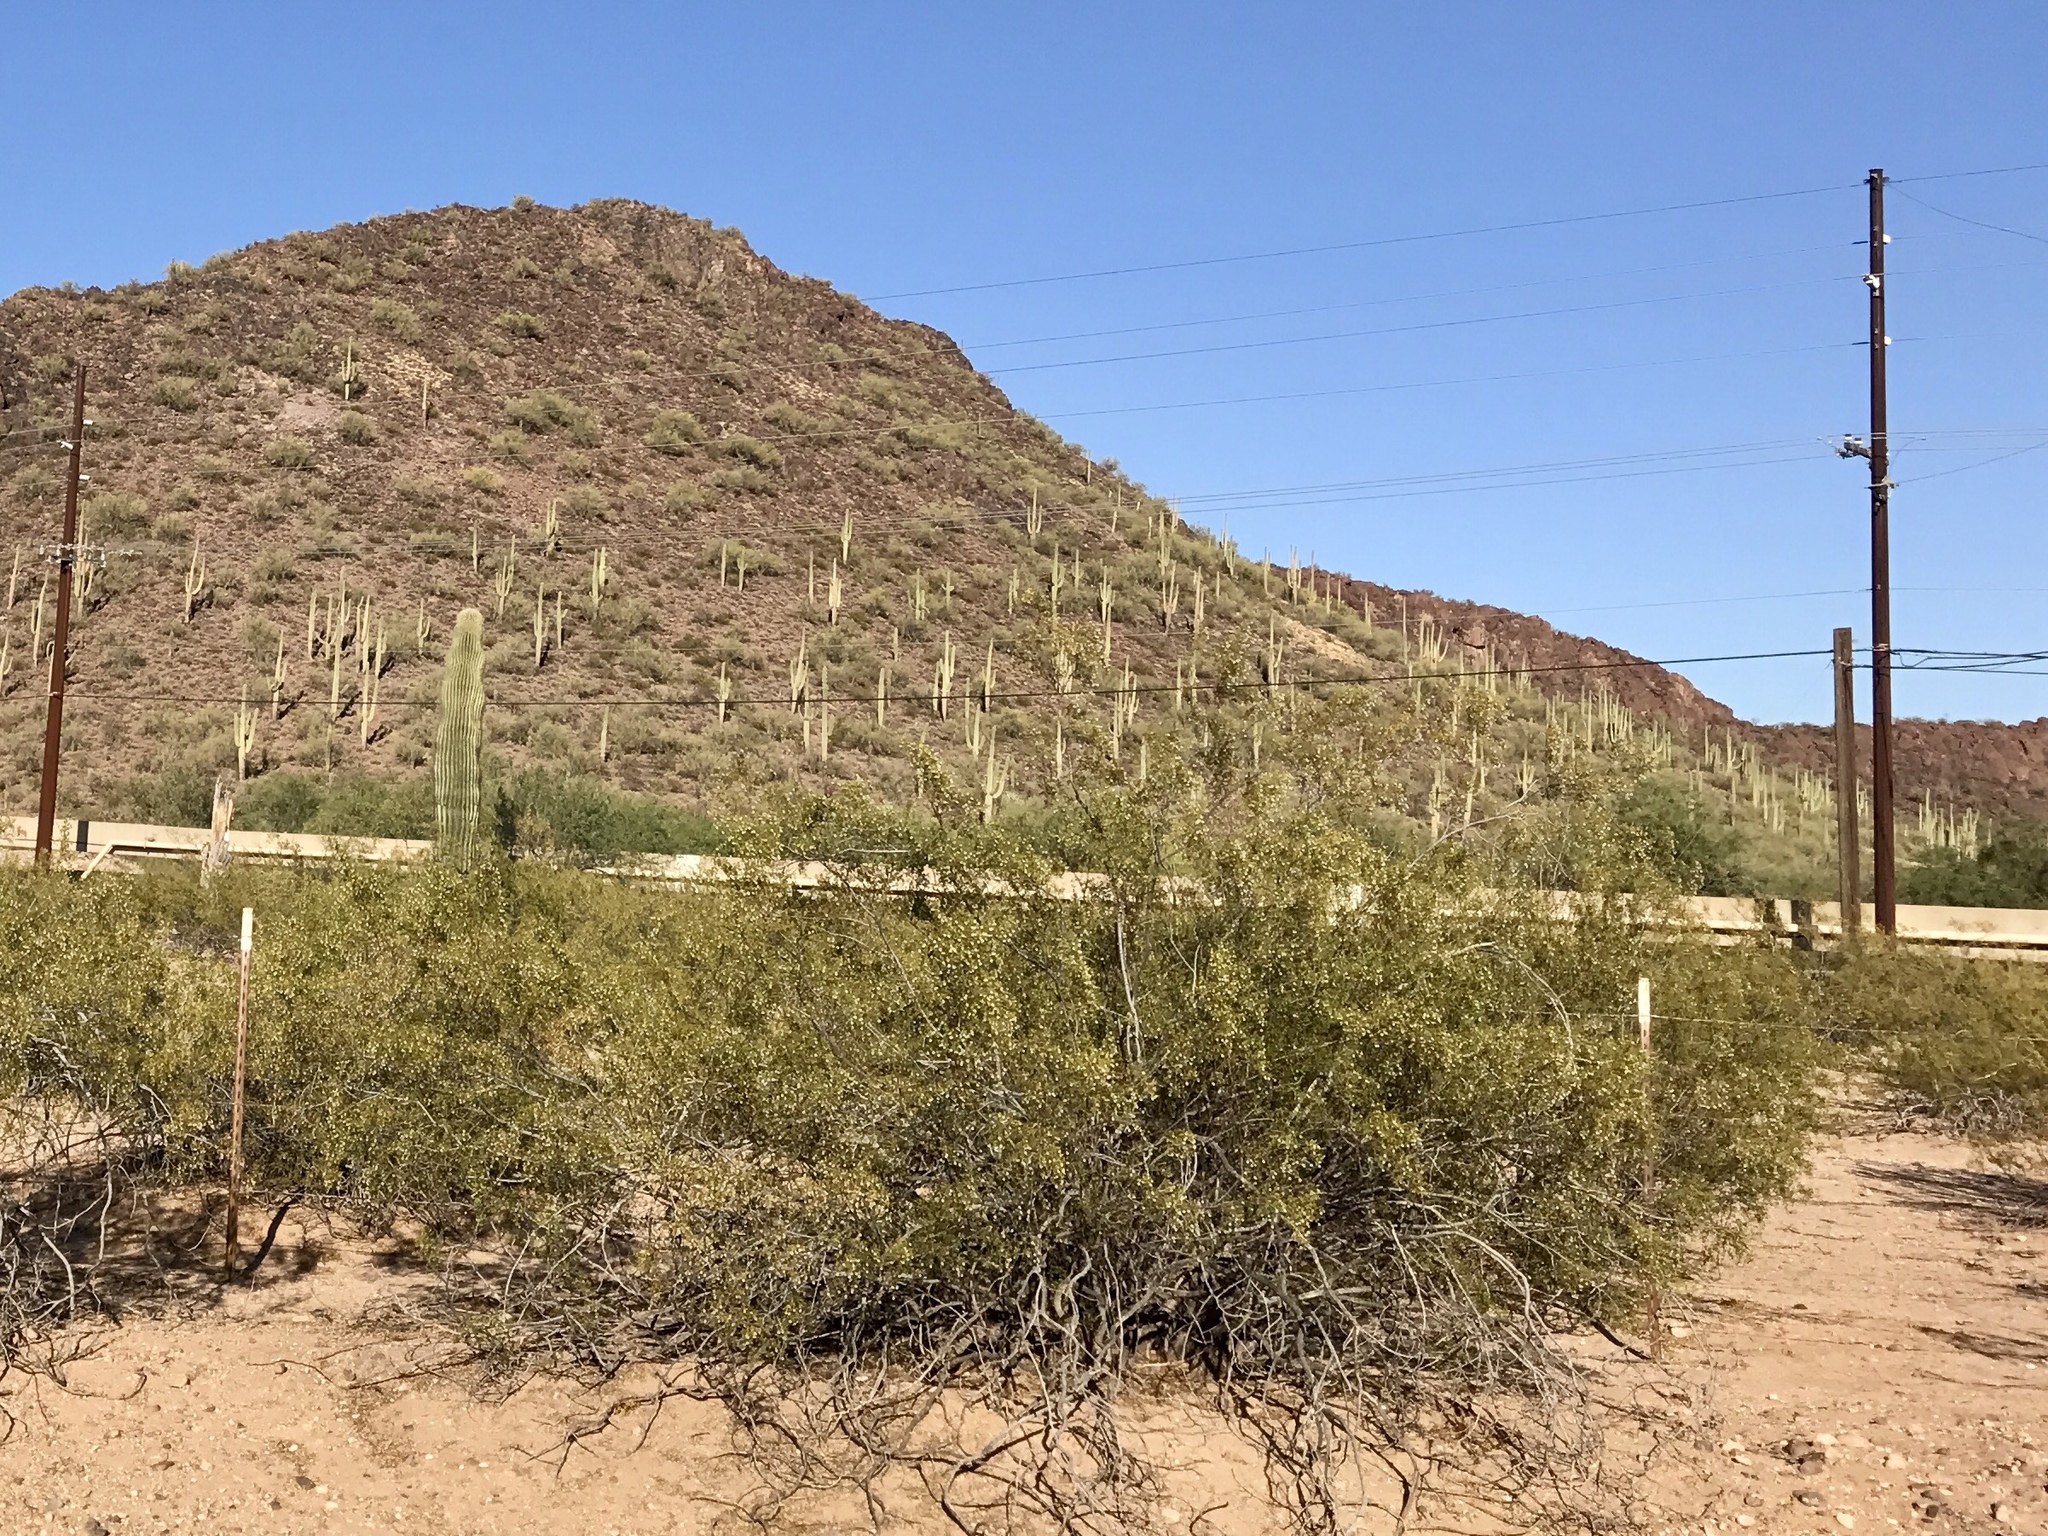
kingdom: Plantae
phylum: Tracheophyta
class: Magnoliopsida
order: Zygophyllales
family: Zygophyllaceae
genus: Larrea
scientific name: Larrea tridentata
